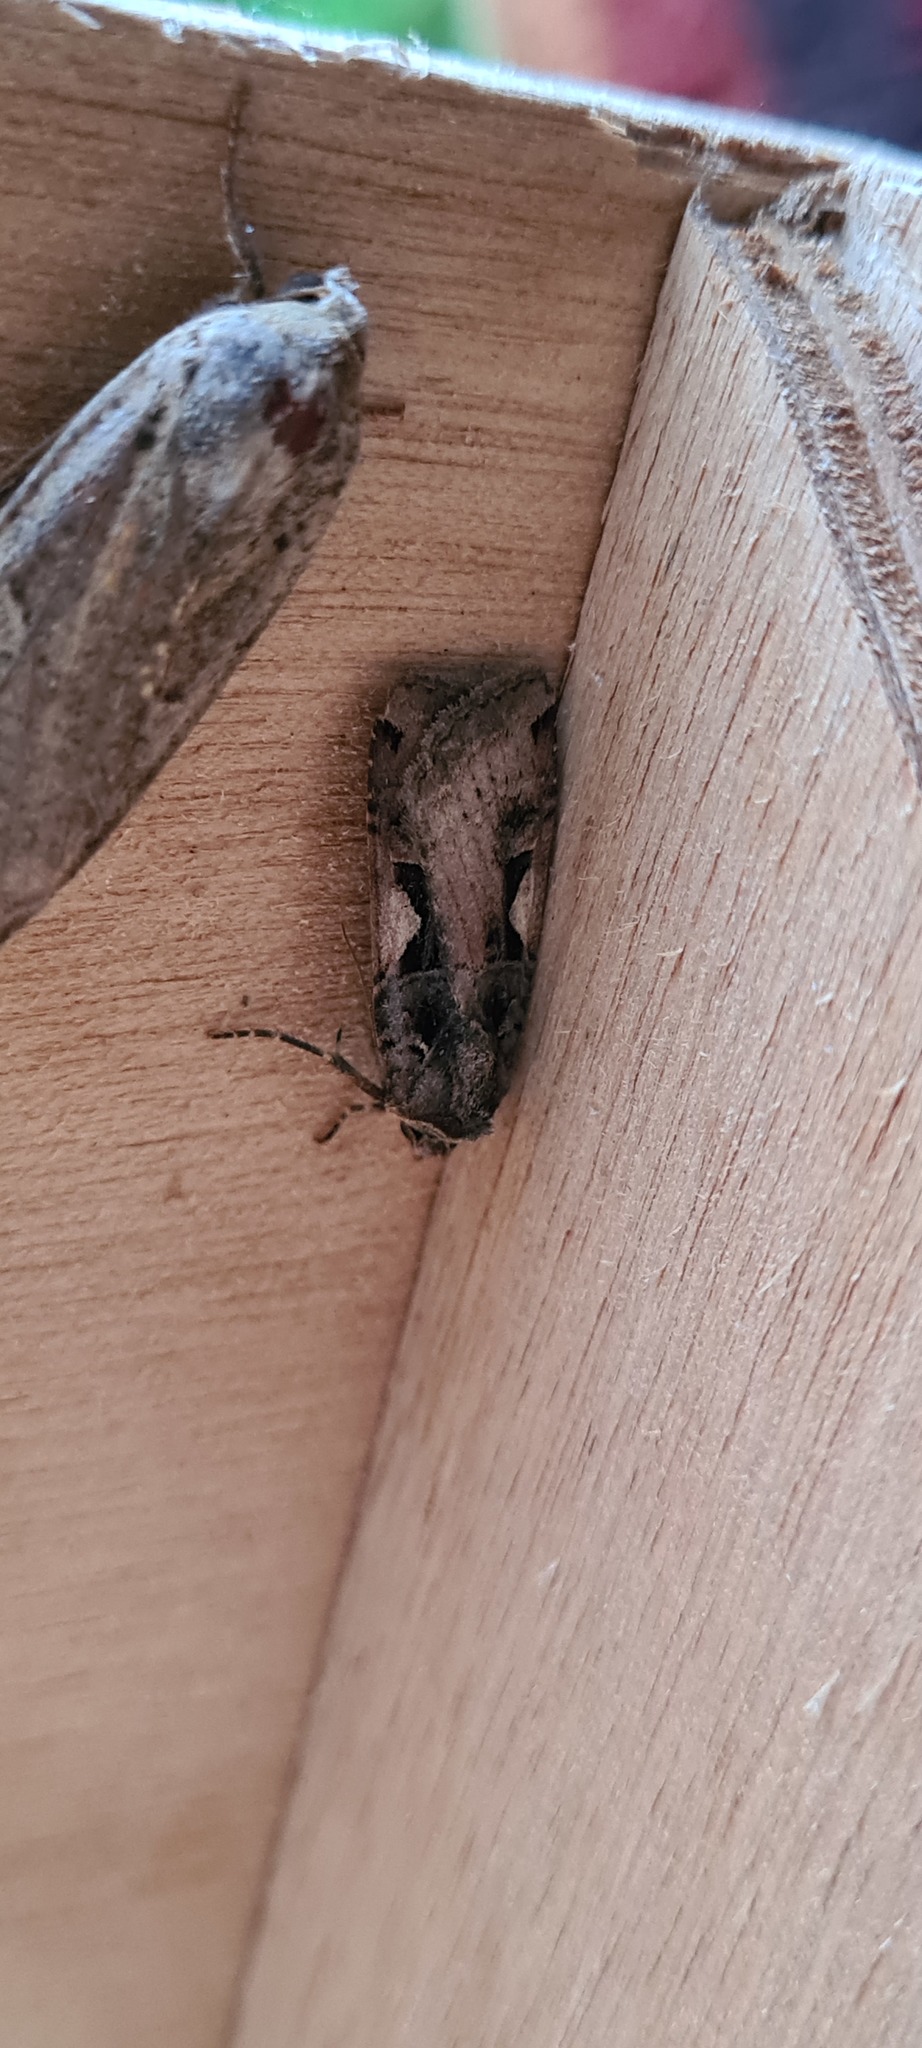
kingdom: Animalia
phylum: Arthropoda
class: Insecta
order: Lepidoptera
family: Noctuidae
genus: Xestia
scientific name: Xestia c-nigrum
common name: Setaceous hebrew character
